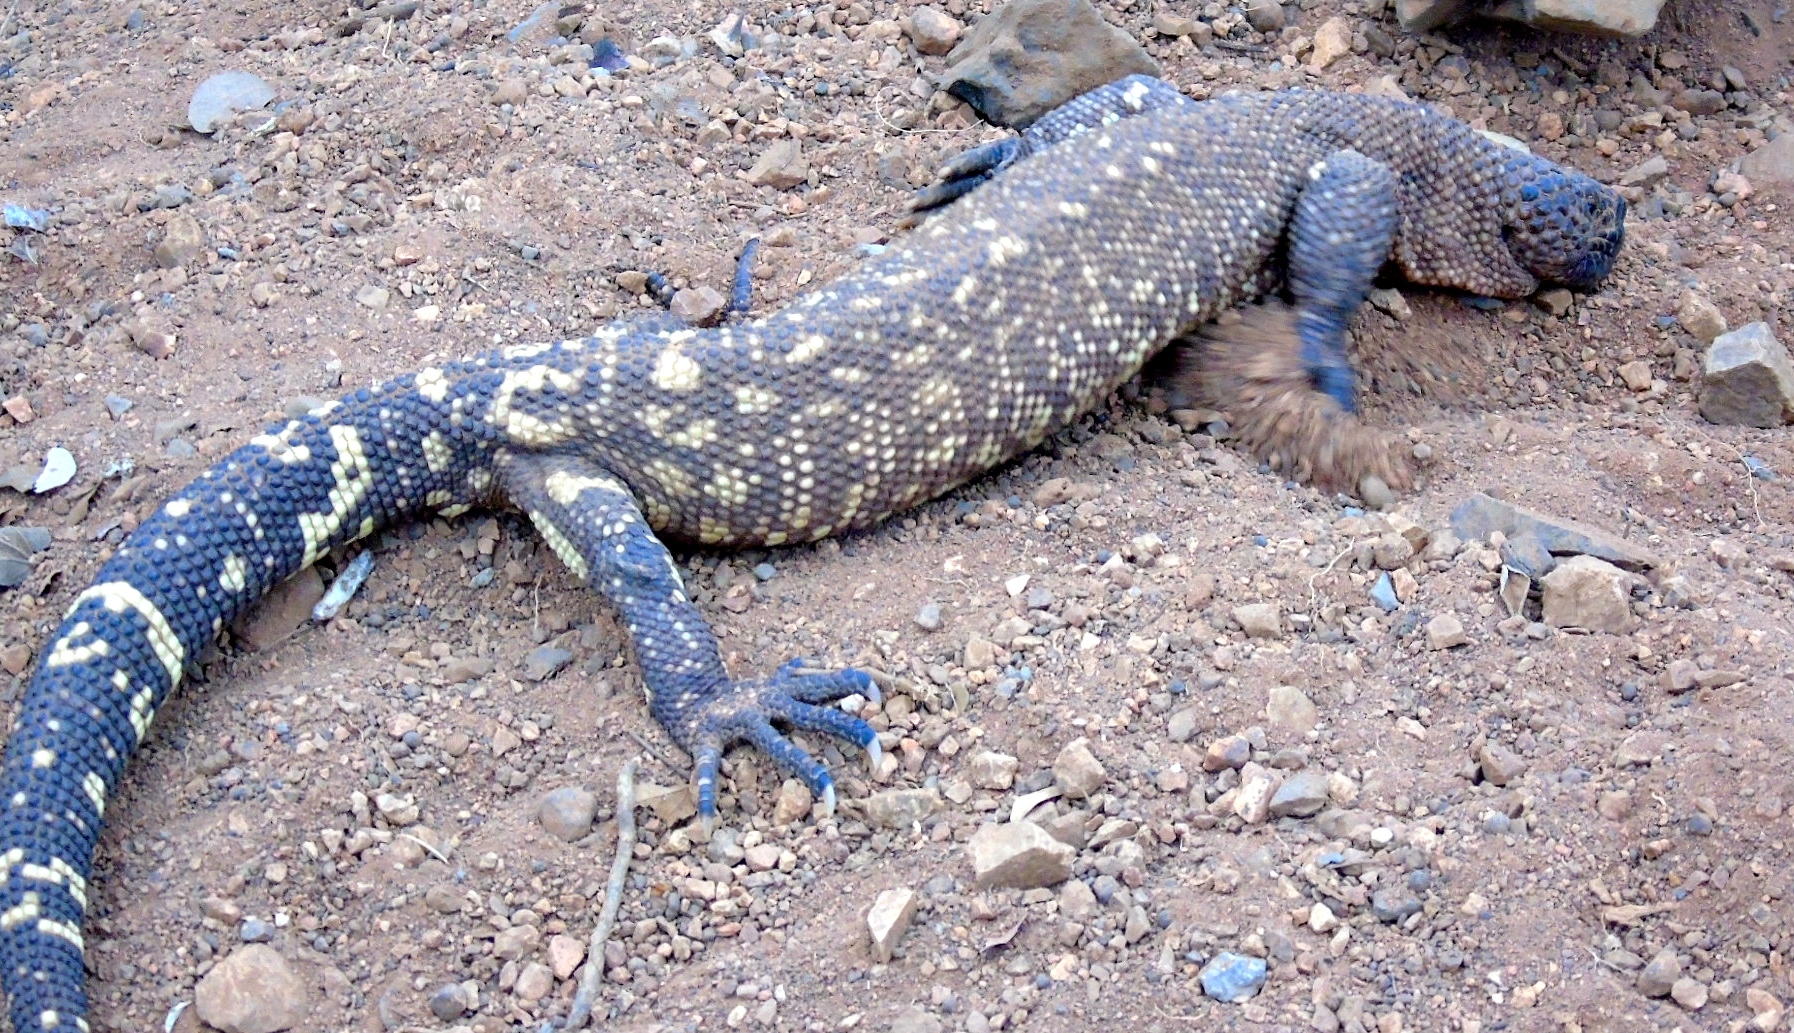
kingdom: Animalia
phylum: Chordata
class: Squamata
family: Helodermatidae
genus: Heloderma
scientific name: Heloderma horridum
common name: Mexican beaded lizard
